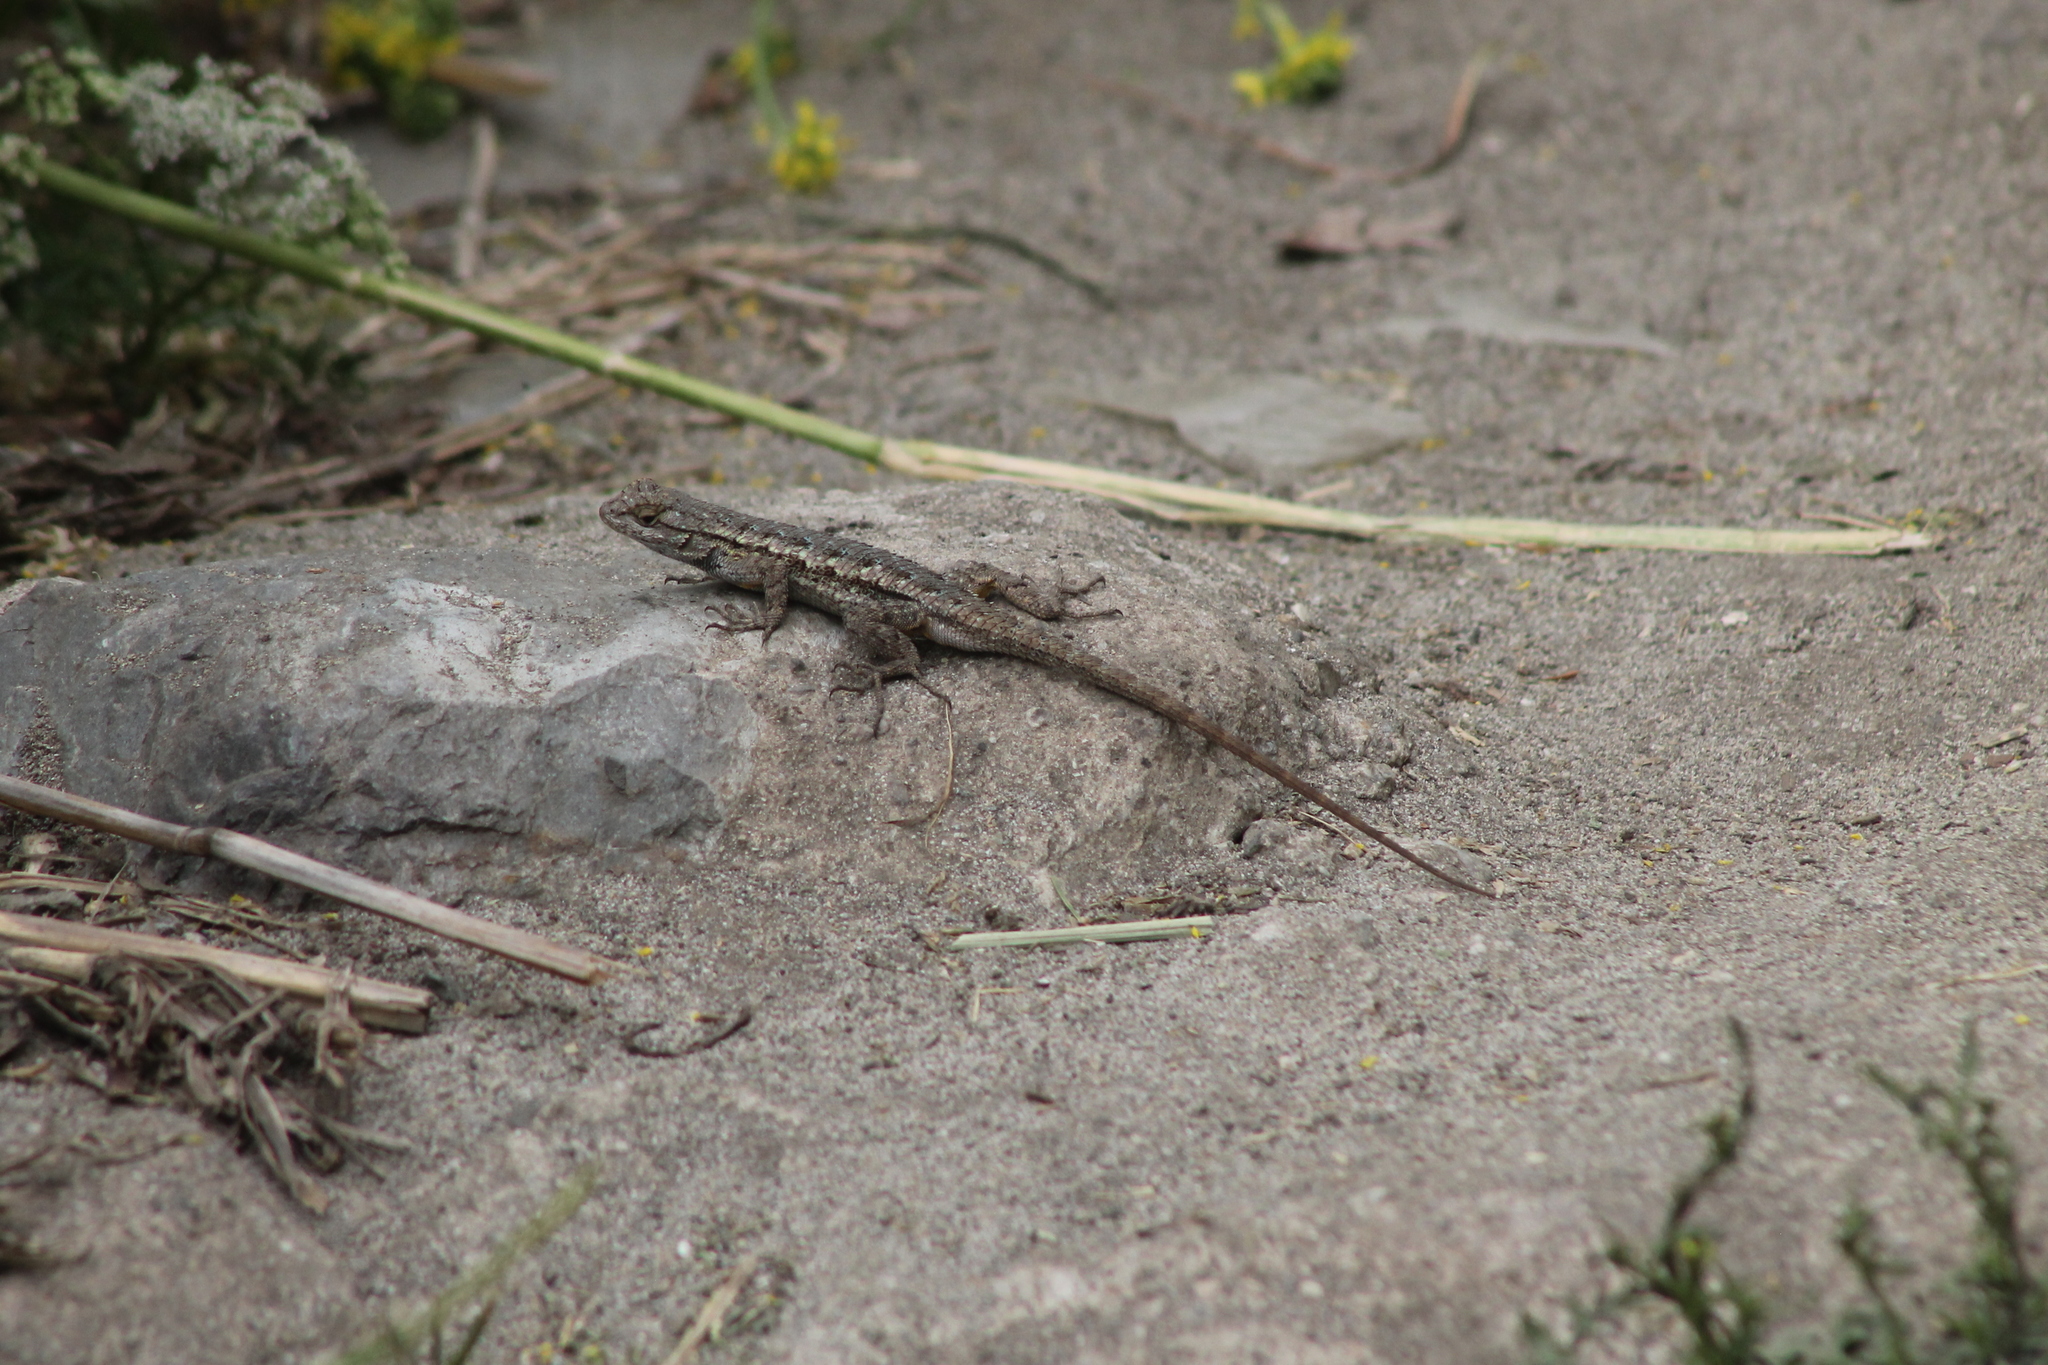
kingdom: Animalia
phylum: Chordata
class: Squamata
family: Phrynosomatidae
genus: Sceloporus
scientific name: Sceloporus occidentalis
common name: Western fence lizard
